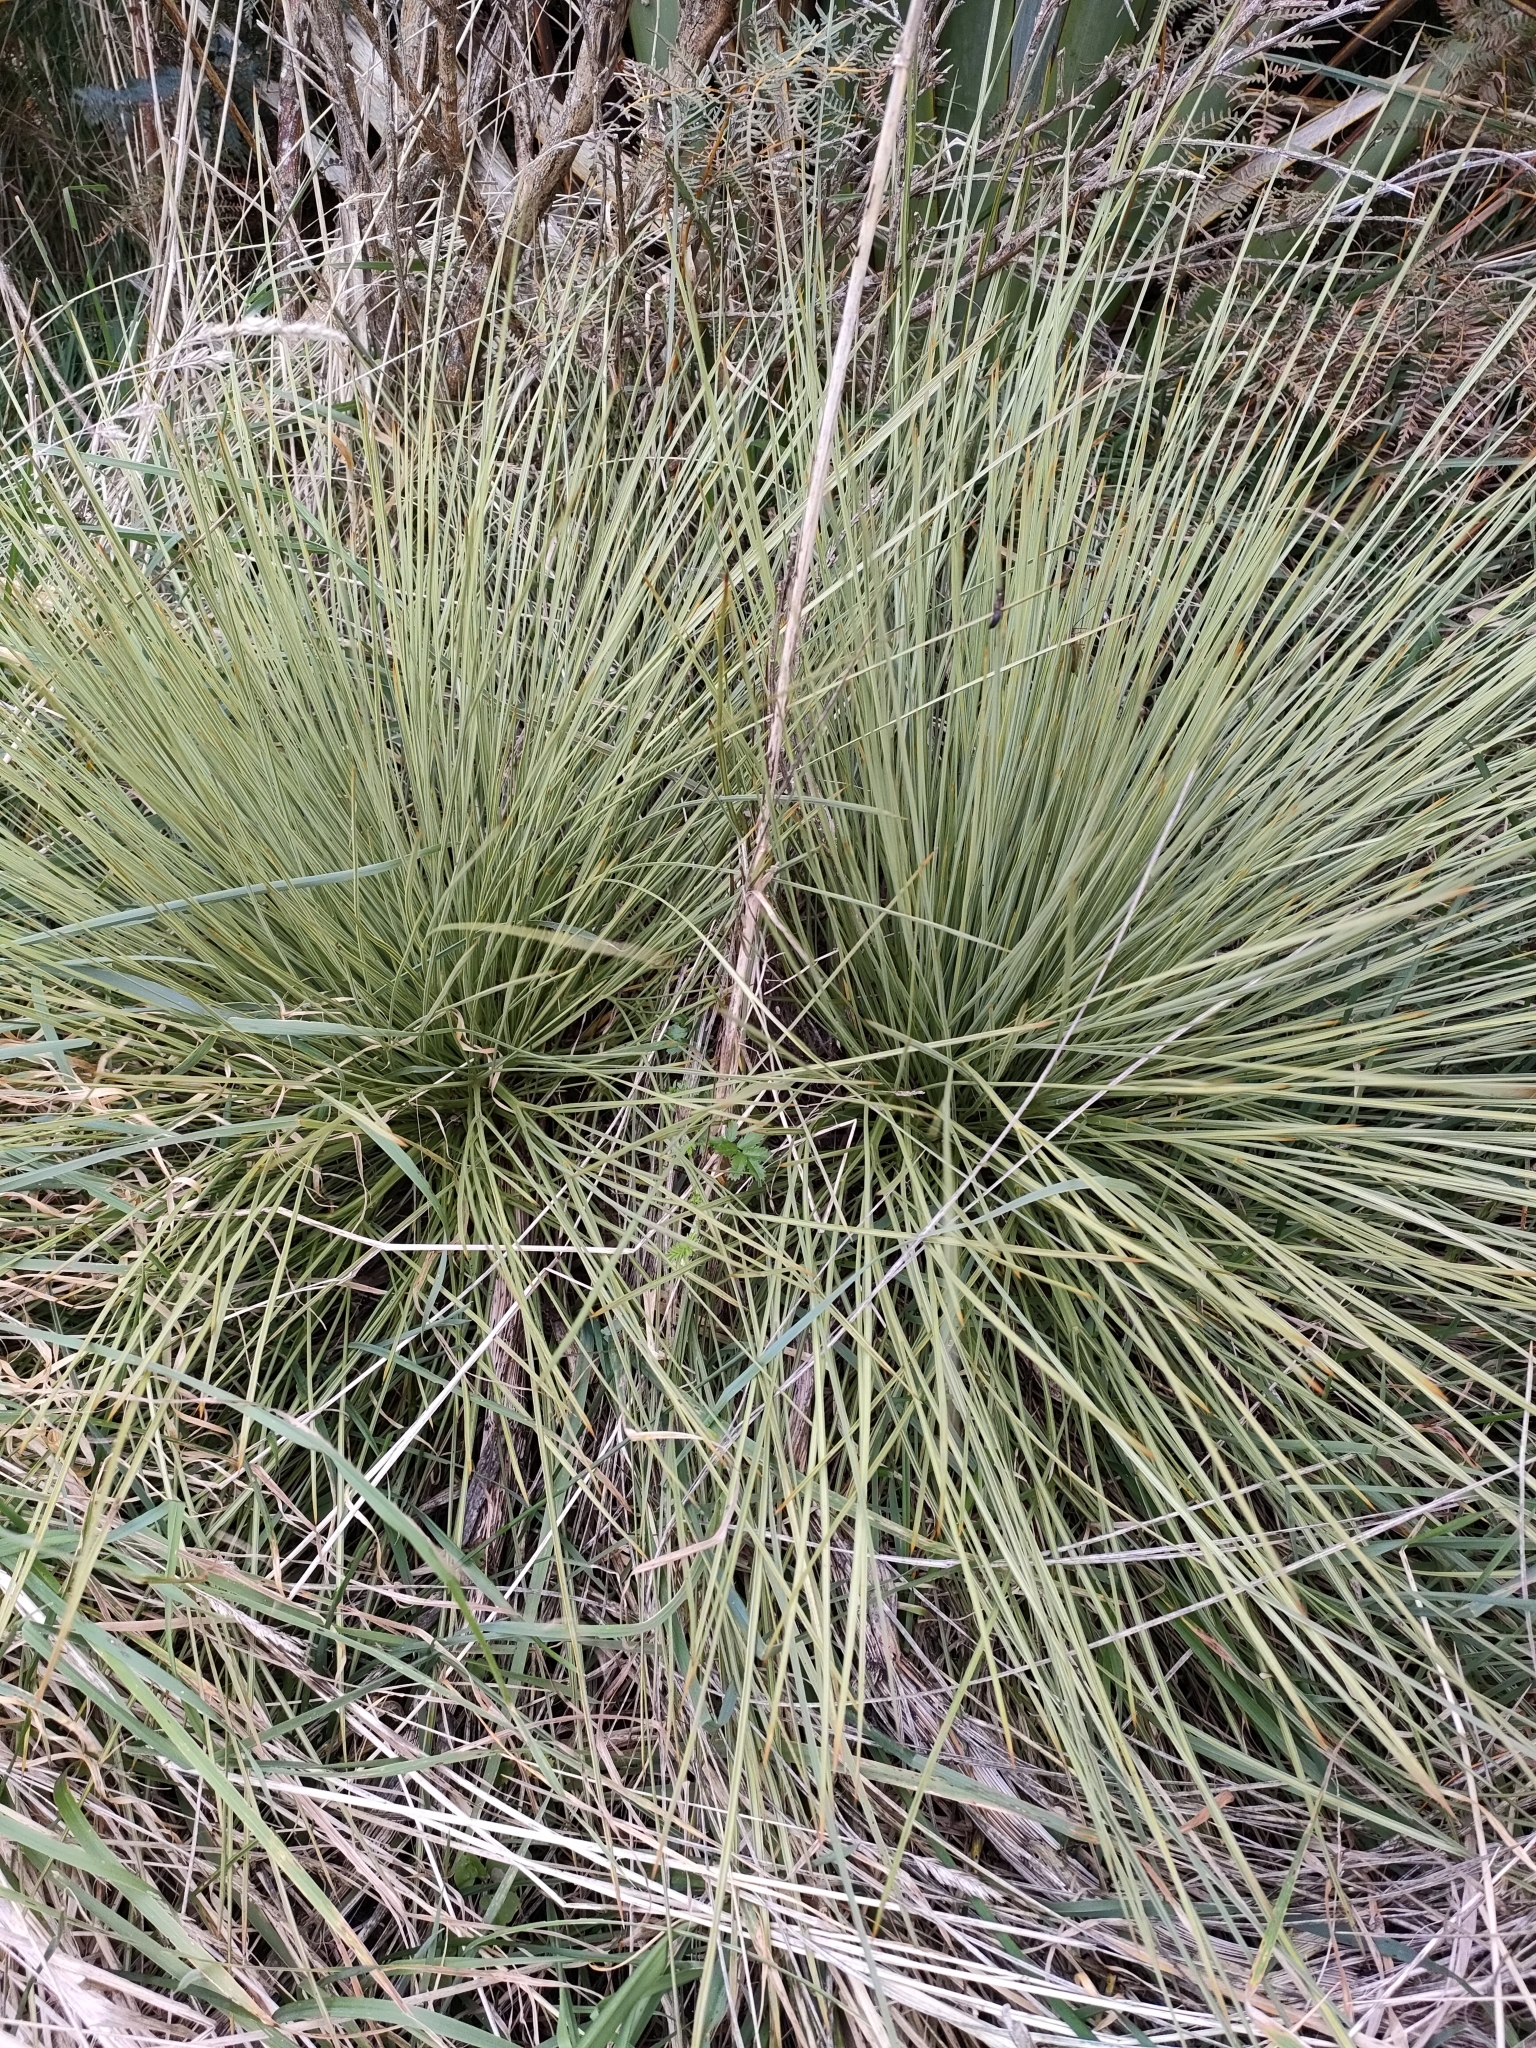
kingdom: Plantae
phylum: Tracheophyta
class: Magnoliopsida
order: Apiales
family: Apiaceae
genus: Aciphylla
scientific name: Aciphylla subflabellata
